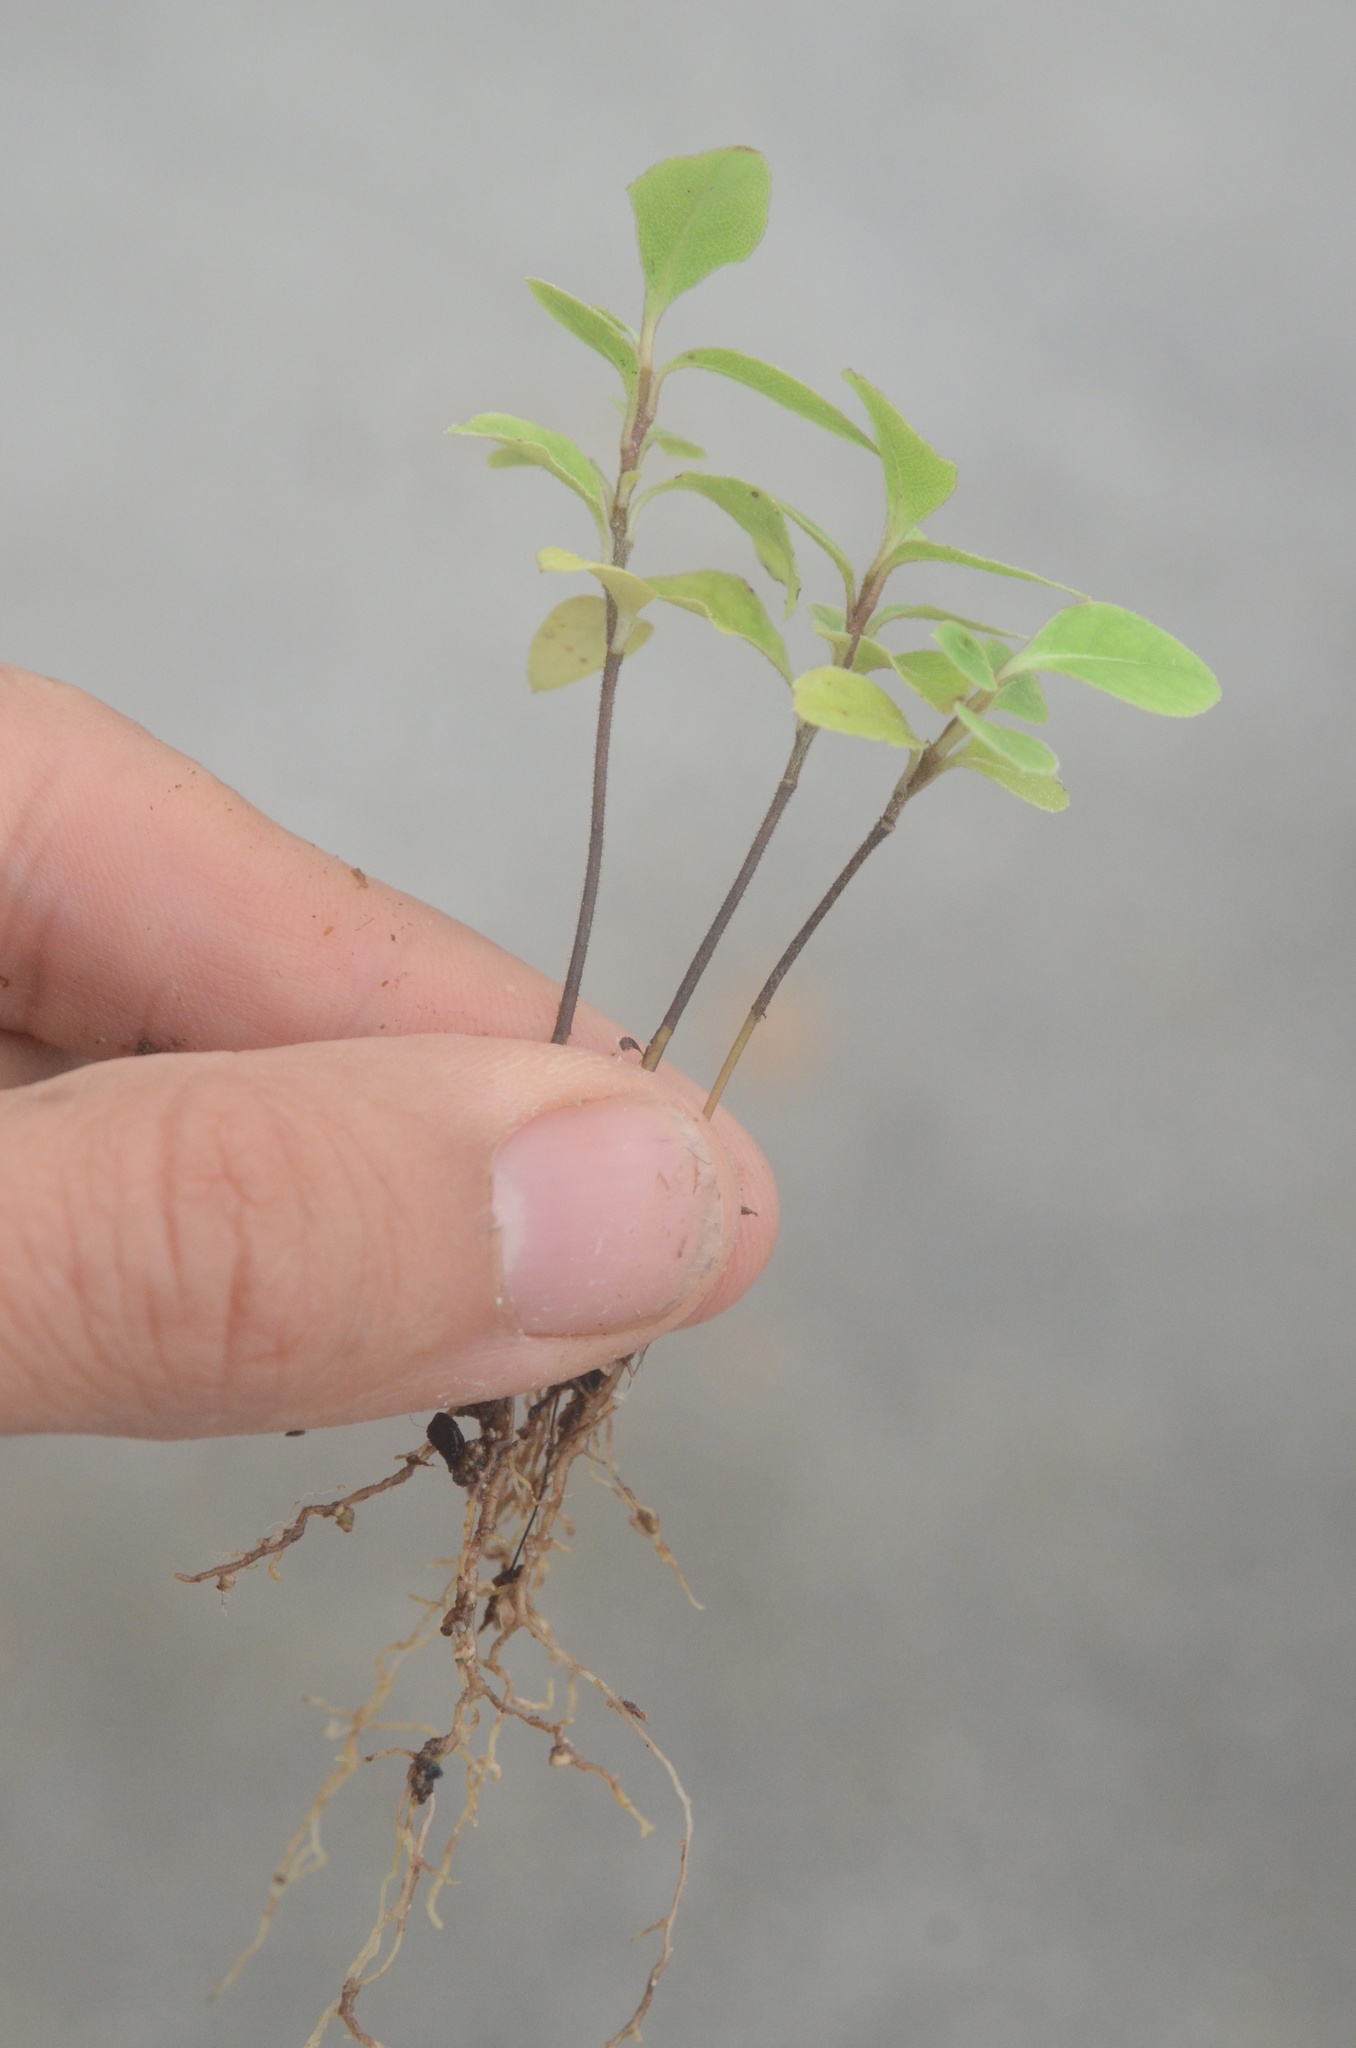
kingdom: Plantae
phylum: Tracheophyta
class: Magnoliopsida
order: Apiales
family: Pittosporaceae
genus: Pittosporum
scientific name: Pittosporum tenuifolium
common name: Kohuhu
